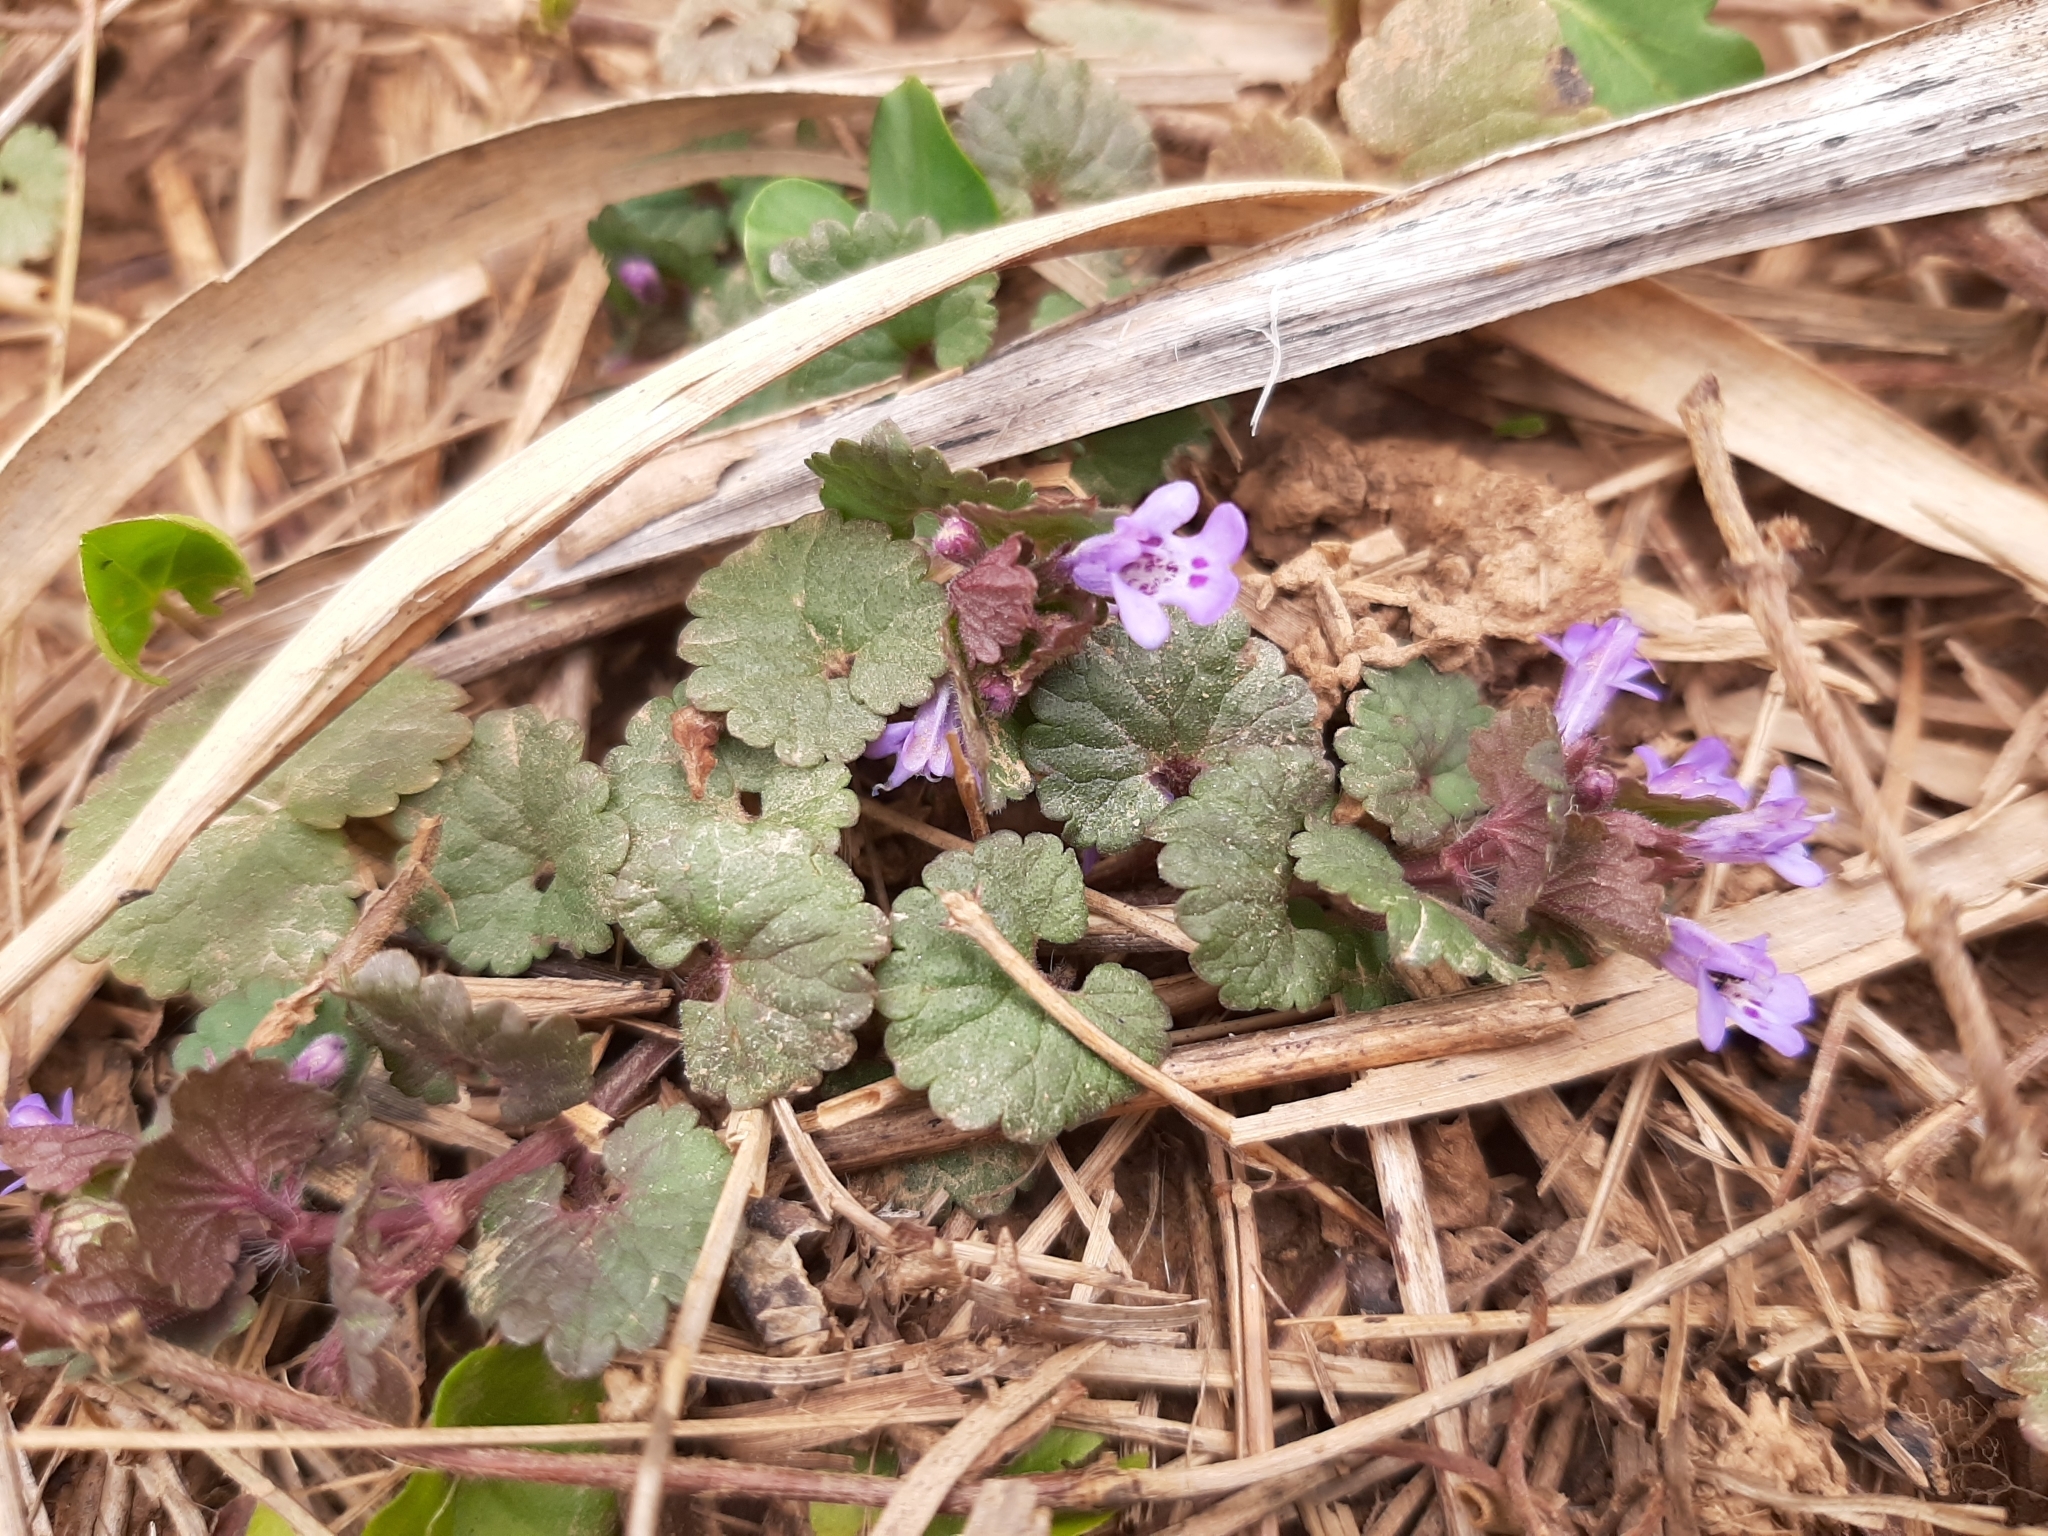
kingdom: Plantae
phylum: Tracheophyta
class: Magnoliopsida
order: Lamiales
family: Lamiaceae
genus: Glechoma
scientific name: Glechoma hederacea
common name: Ground ivy
